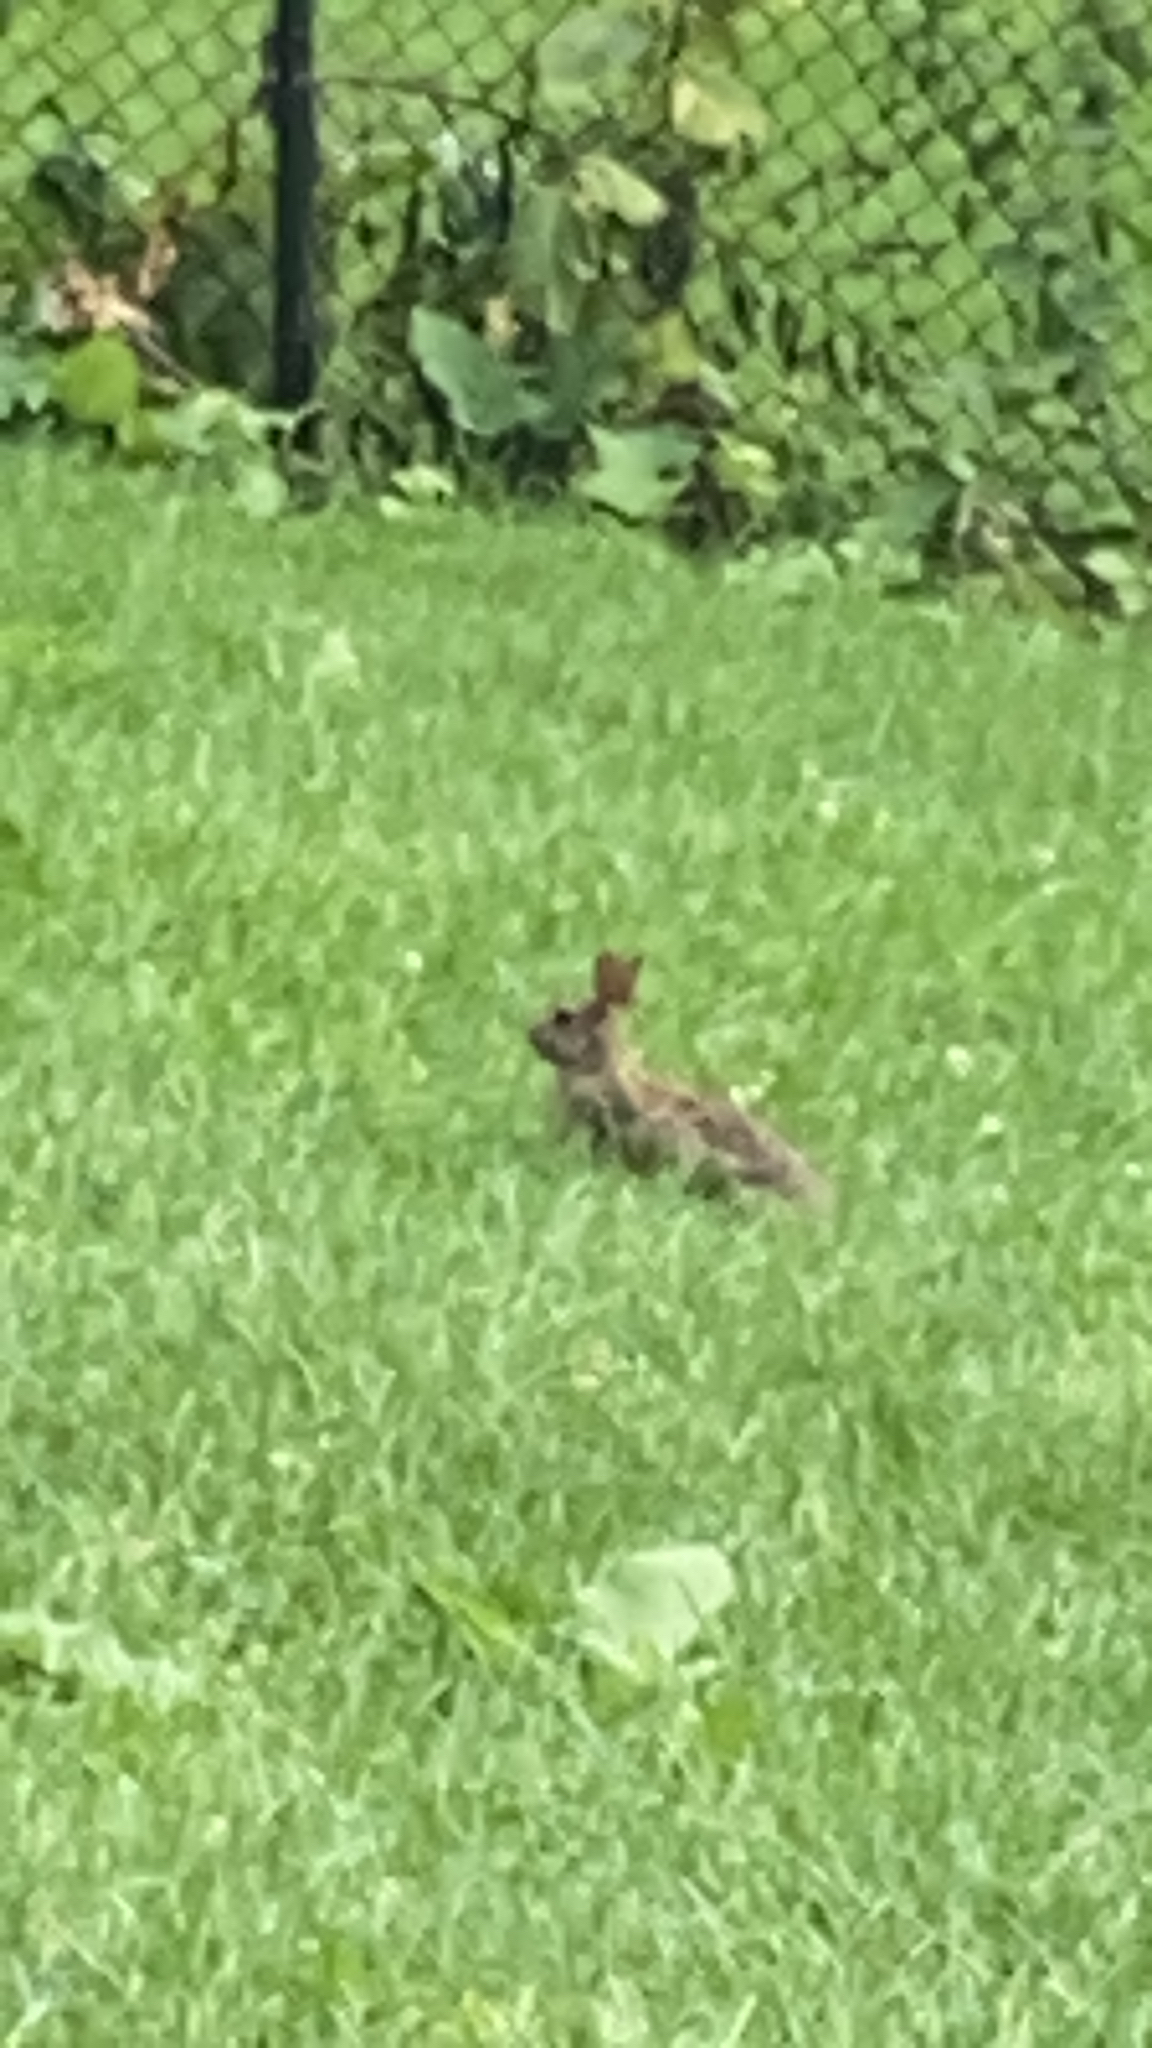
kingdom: Animalia
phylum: Chordata
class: Mammalia
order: Lagomorpha
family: Leporidae
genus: Sylvilagus
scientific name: Sylvilagus floridanus
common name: Eastern cottontail
